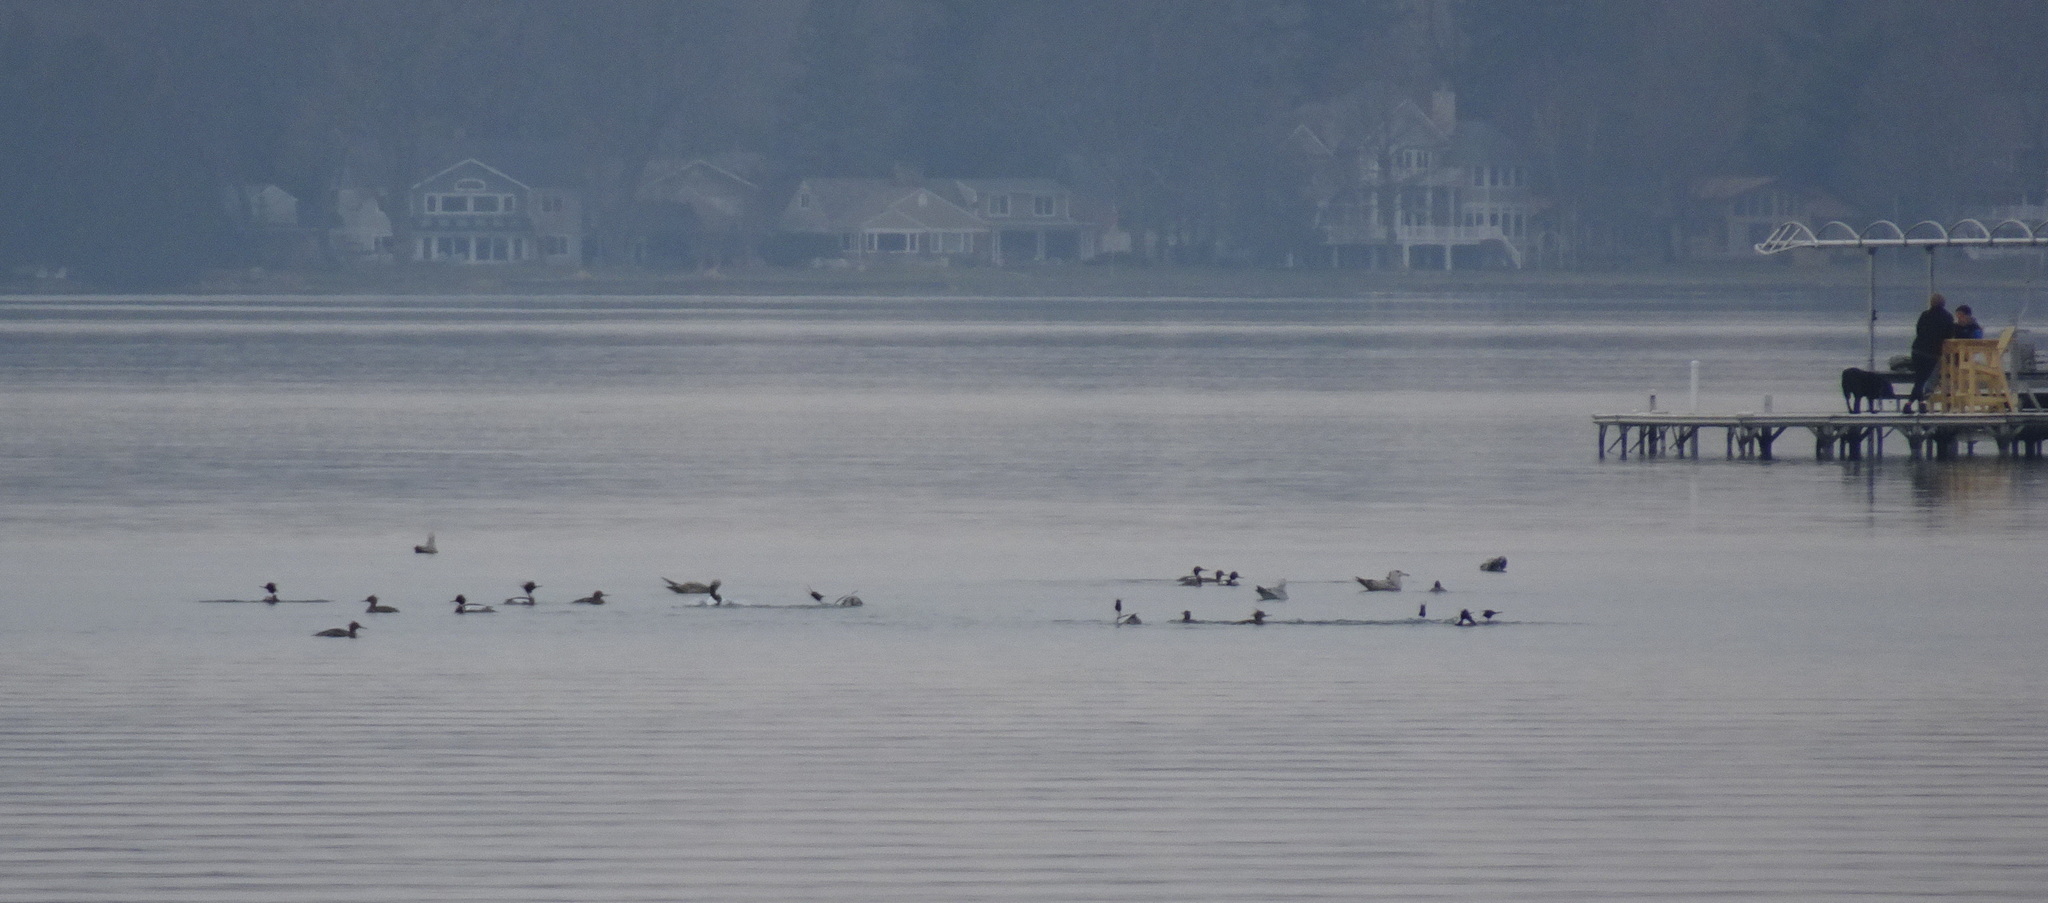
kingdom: Animalia
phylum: Chordata
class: Aves
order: Anseriformes
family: Anatidae
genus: Mergus
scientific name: Mergus serrator
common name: Red-breasted merganser
